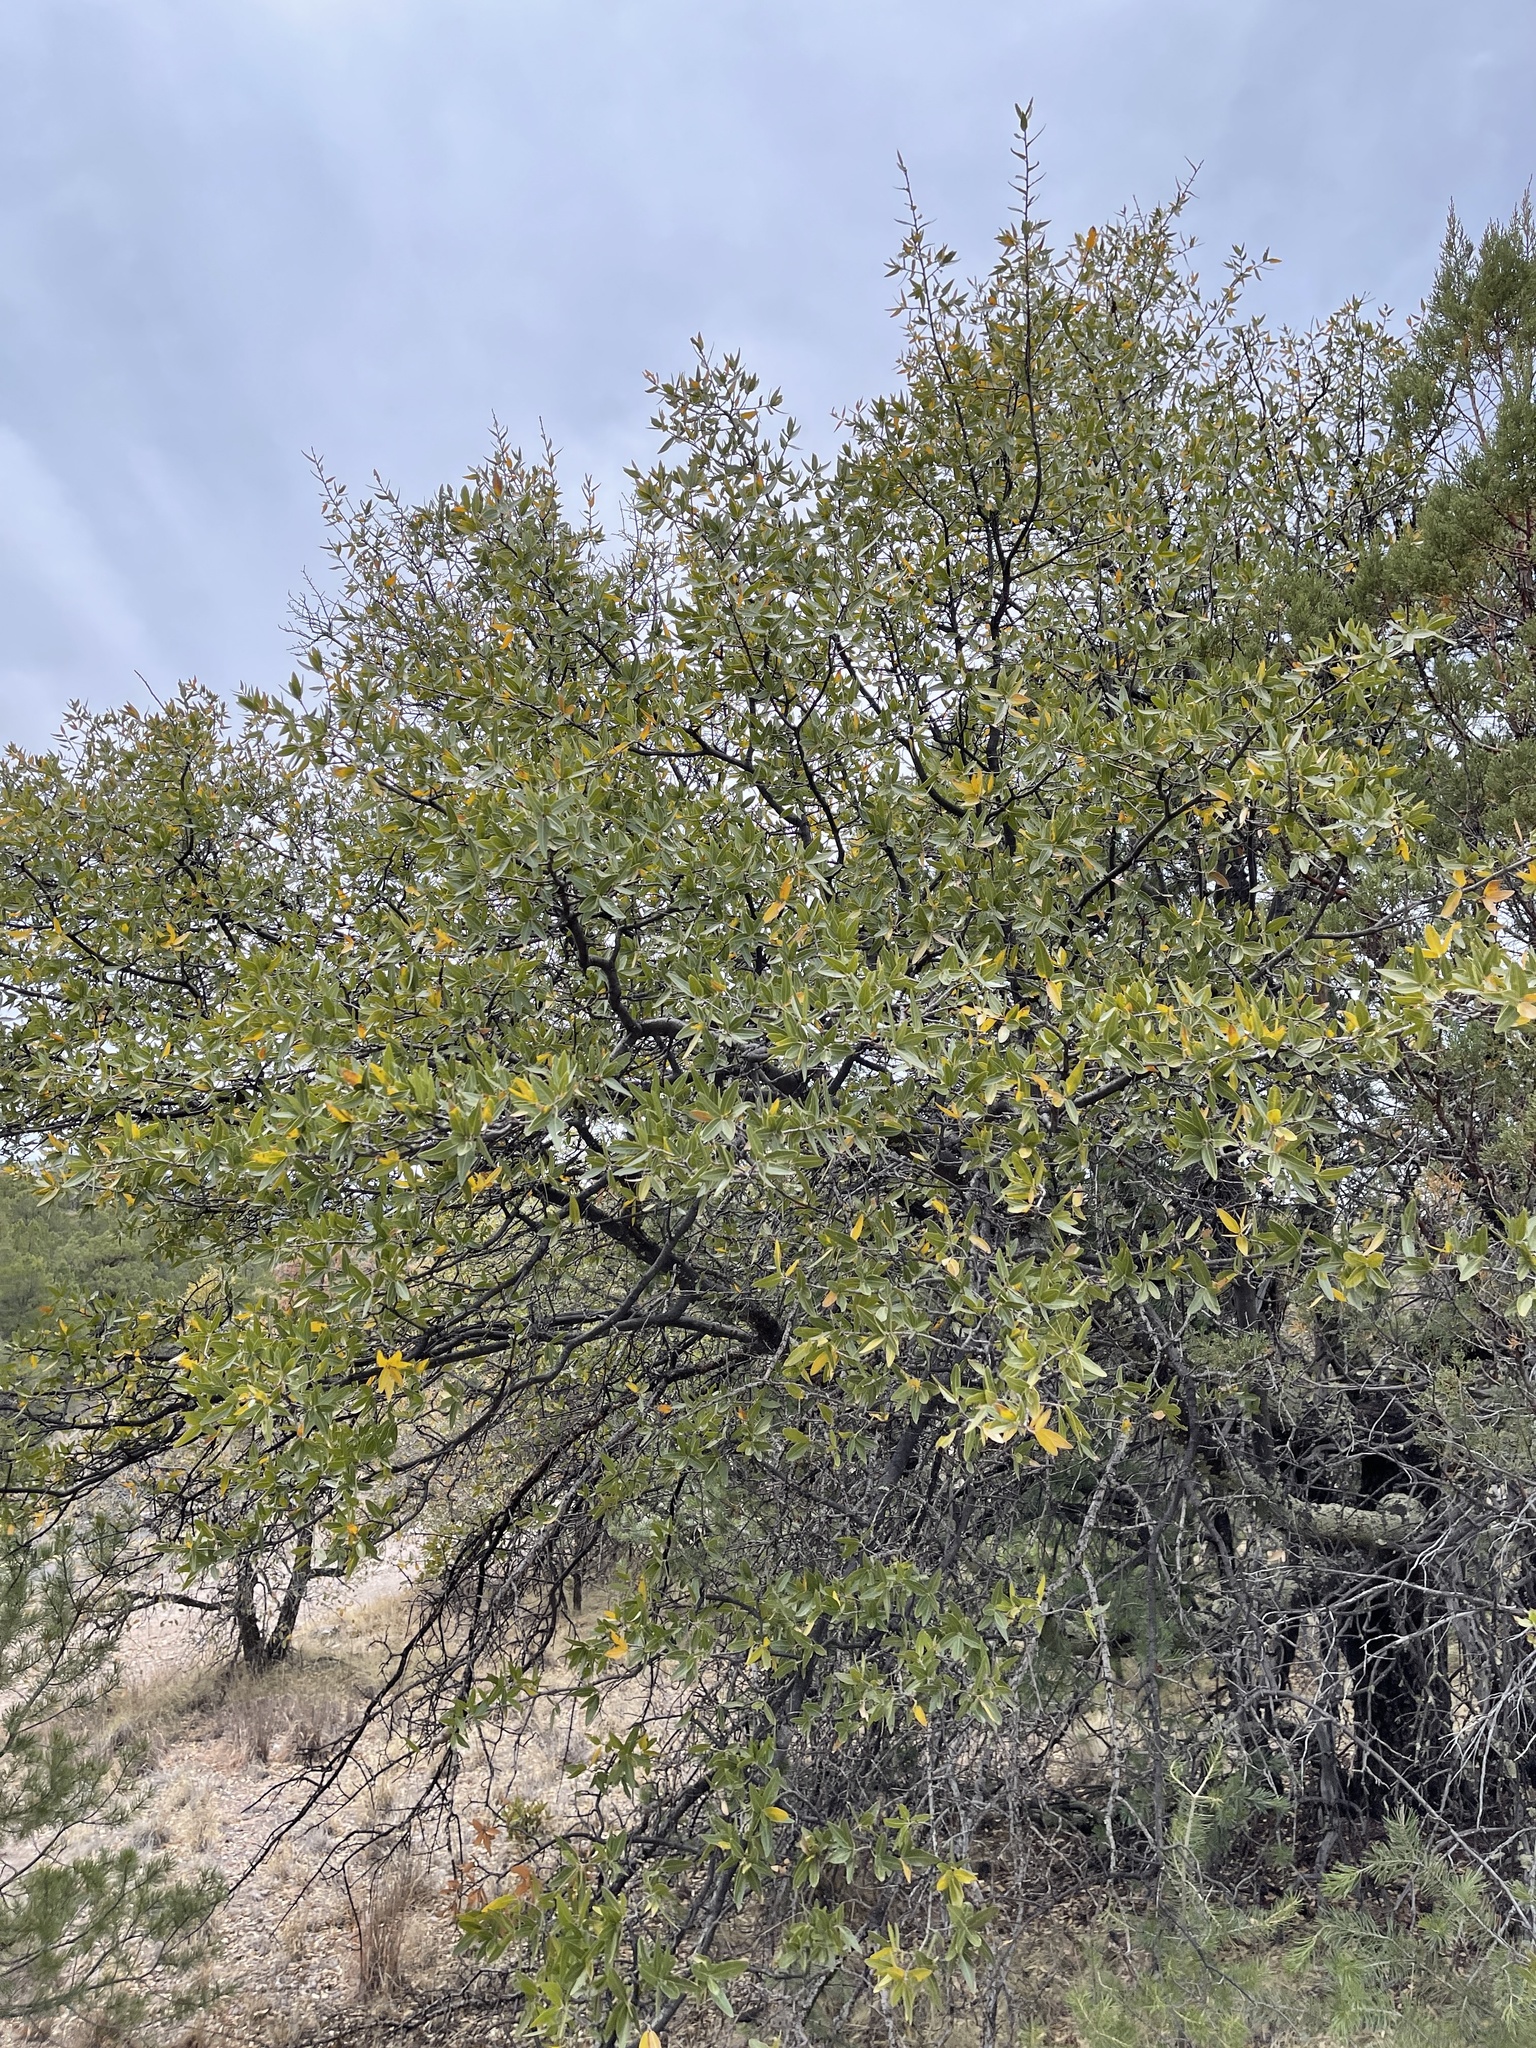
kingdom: Plantae
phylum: Tracheophyta
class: Magnoliopsida
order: Fagales
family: Fagaceae
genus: Quercus
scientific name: Quercus emoryi
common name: Emory oak
